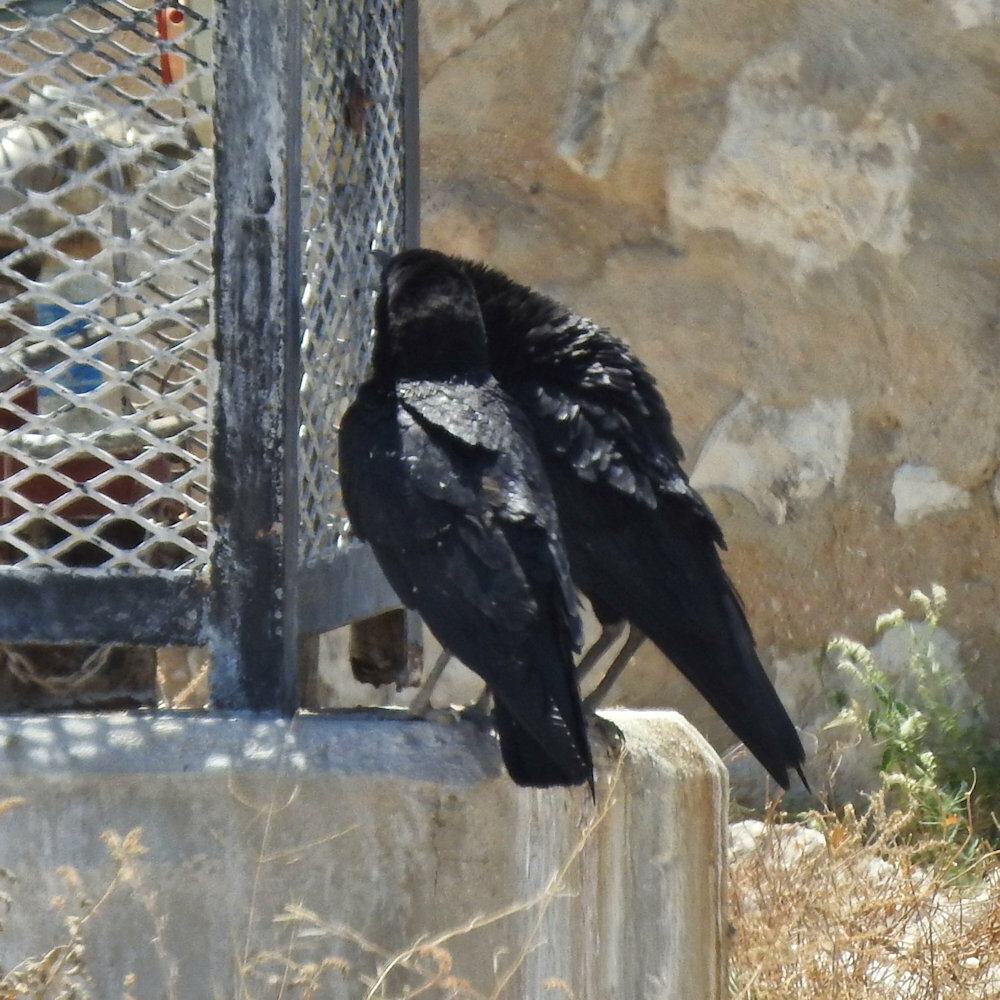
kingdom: Animalia
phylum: Chordata
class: Aves
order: Passeriformes
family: Corvidae
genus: Corvus
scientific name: Corvus capensis
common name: Cape crow
